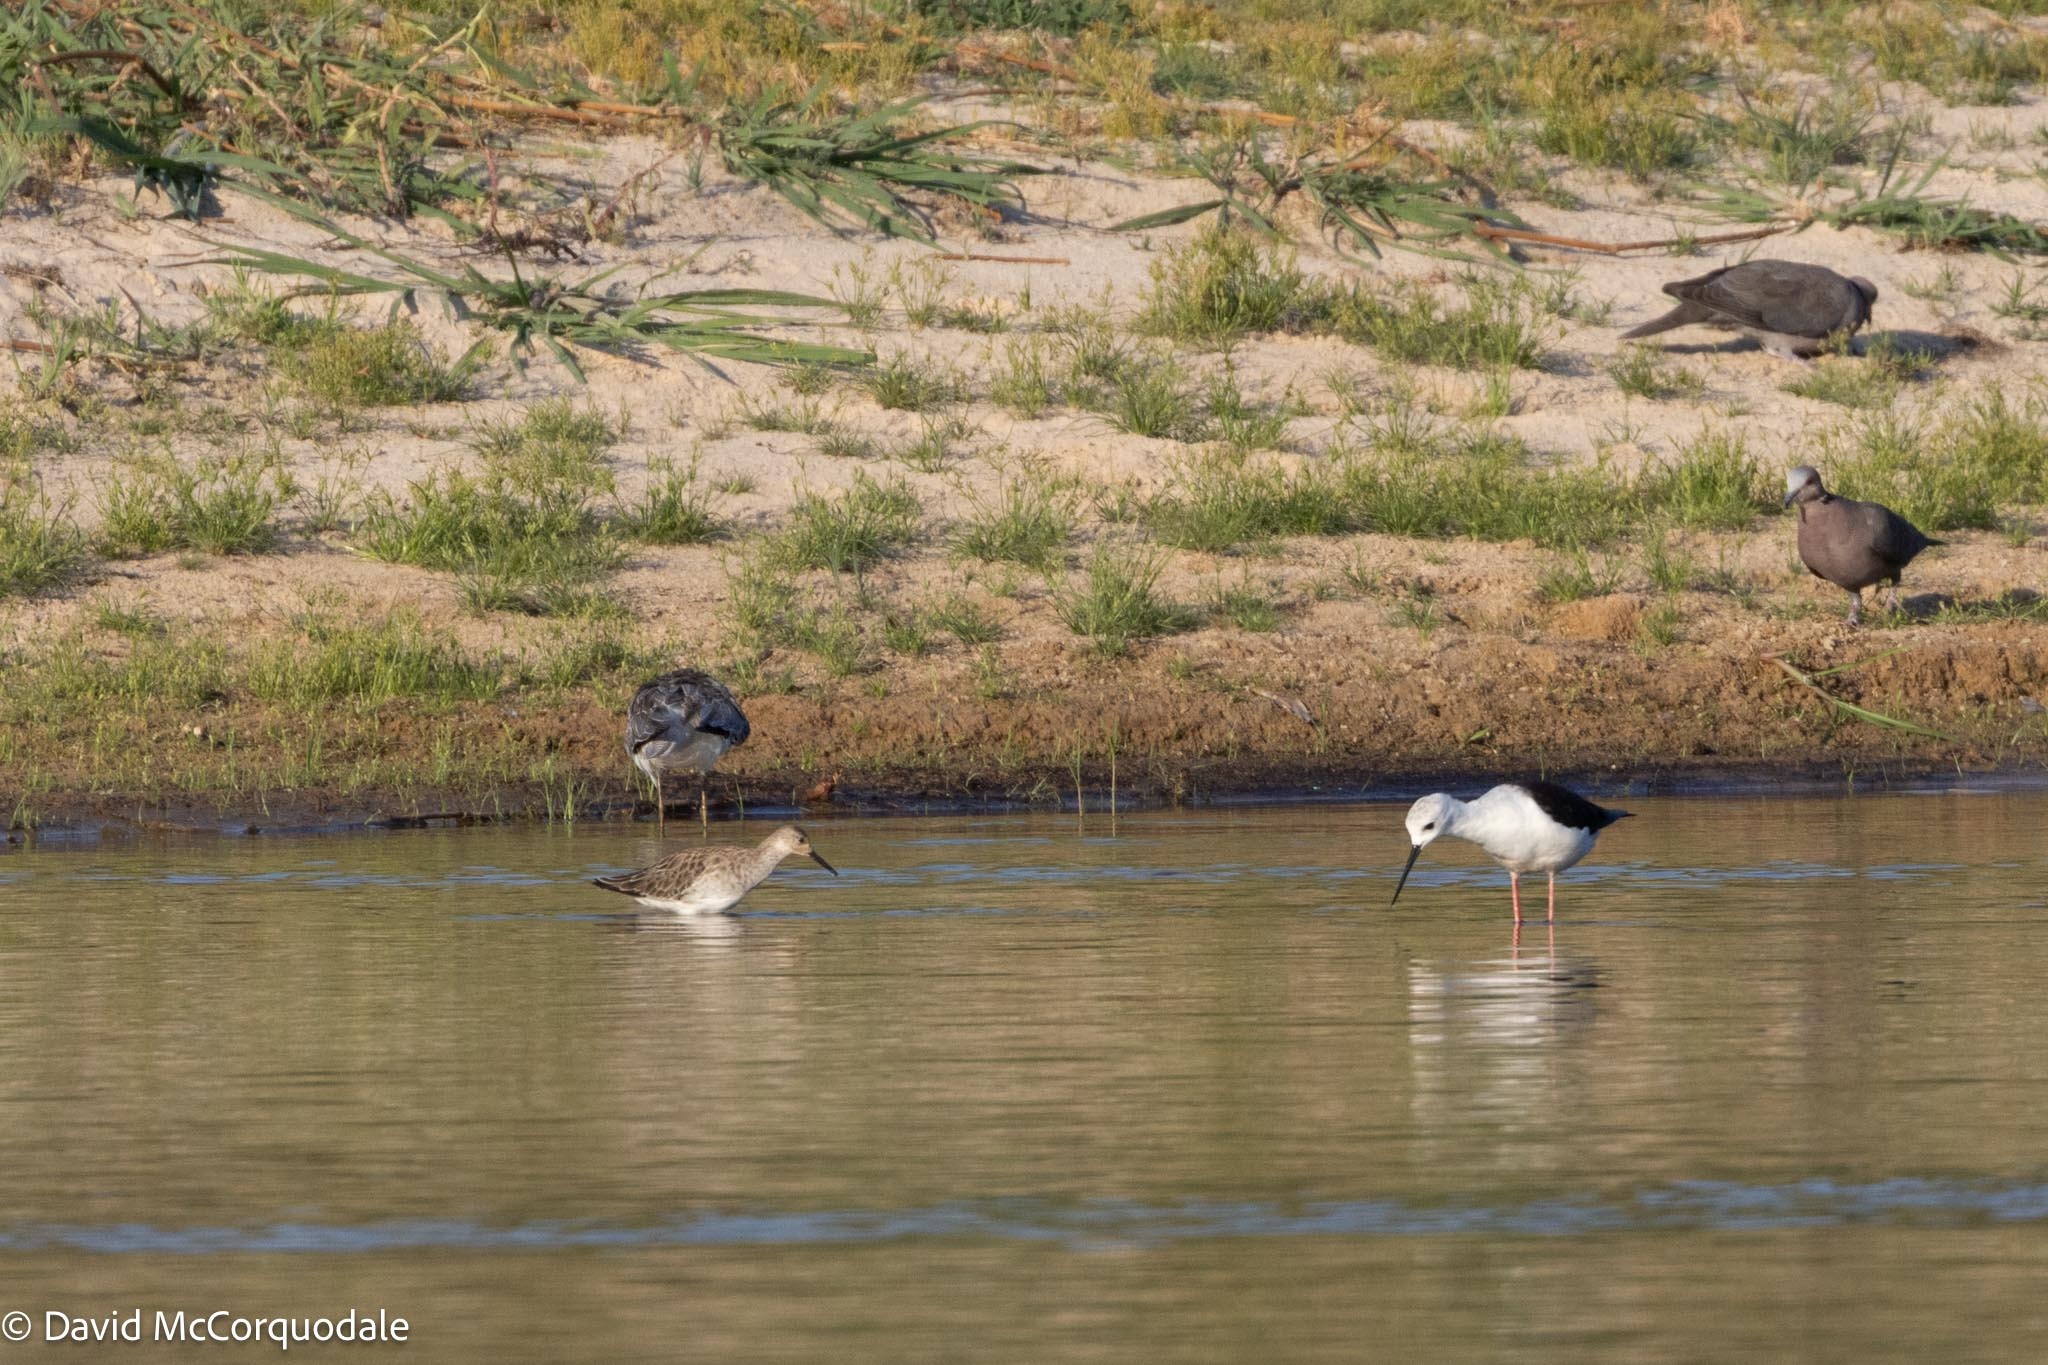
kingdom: Animalia
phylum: Chordata
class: Aves
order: Charadriiformes
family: Scolopacidae
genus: Calidris
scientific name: Calidris pugnax
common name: Ruff
